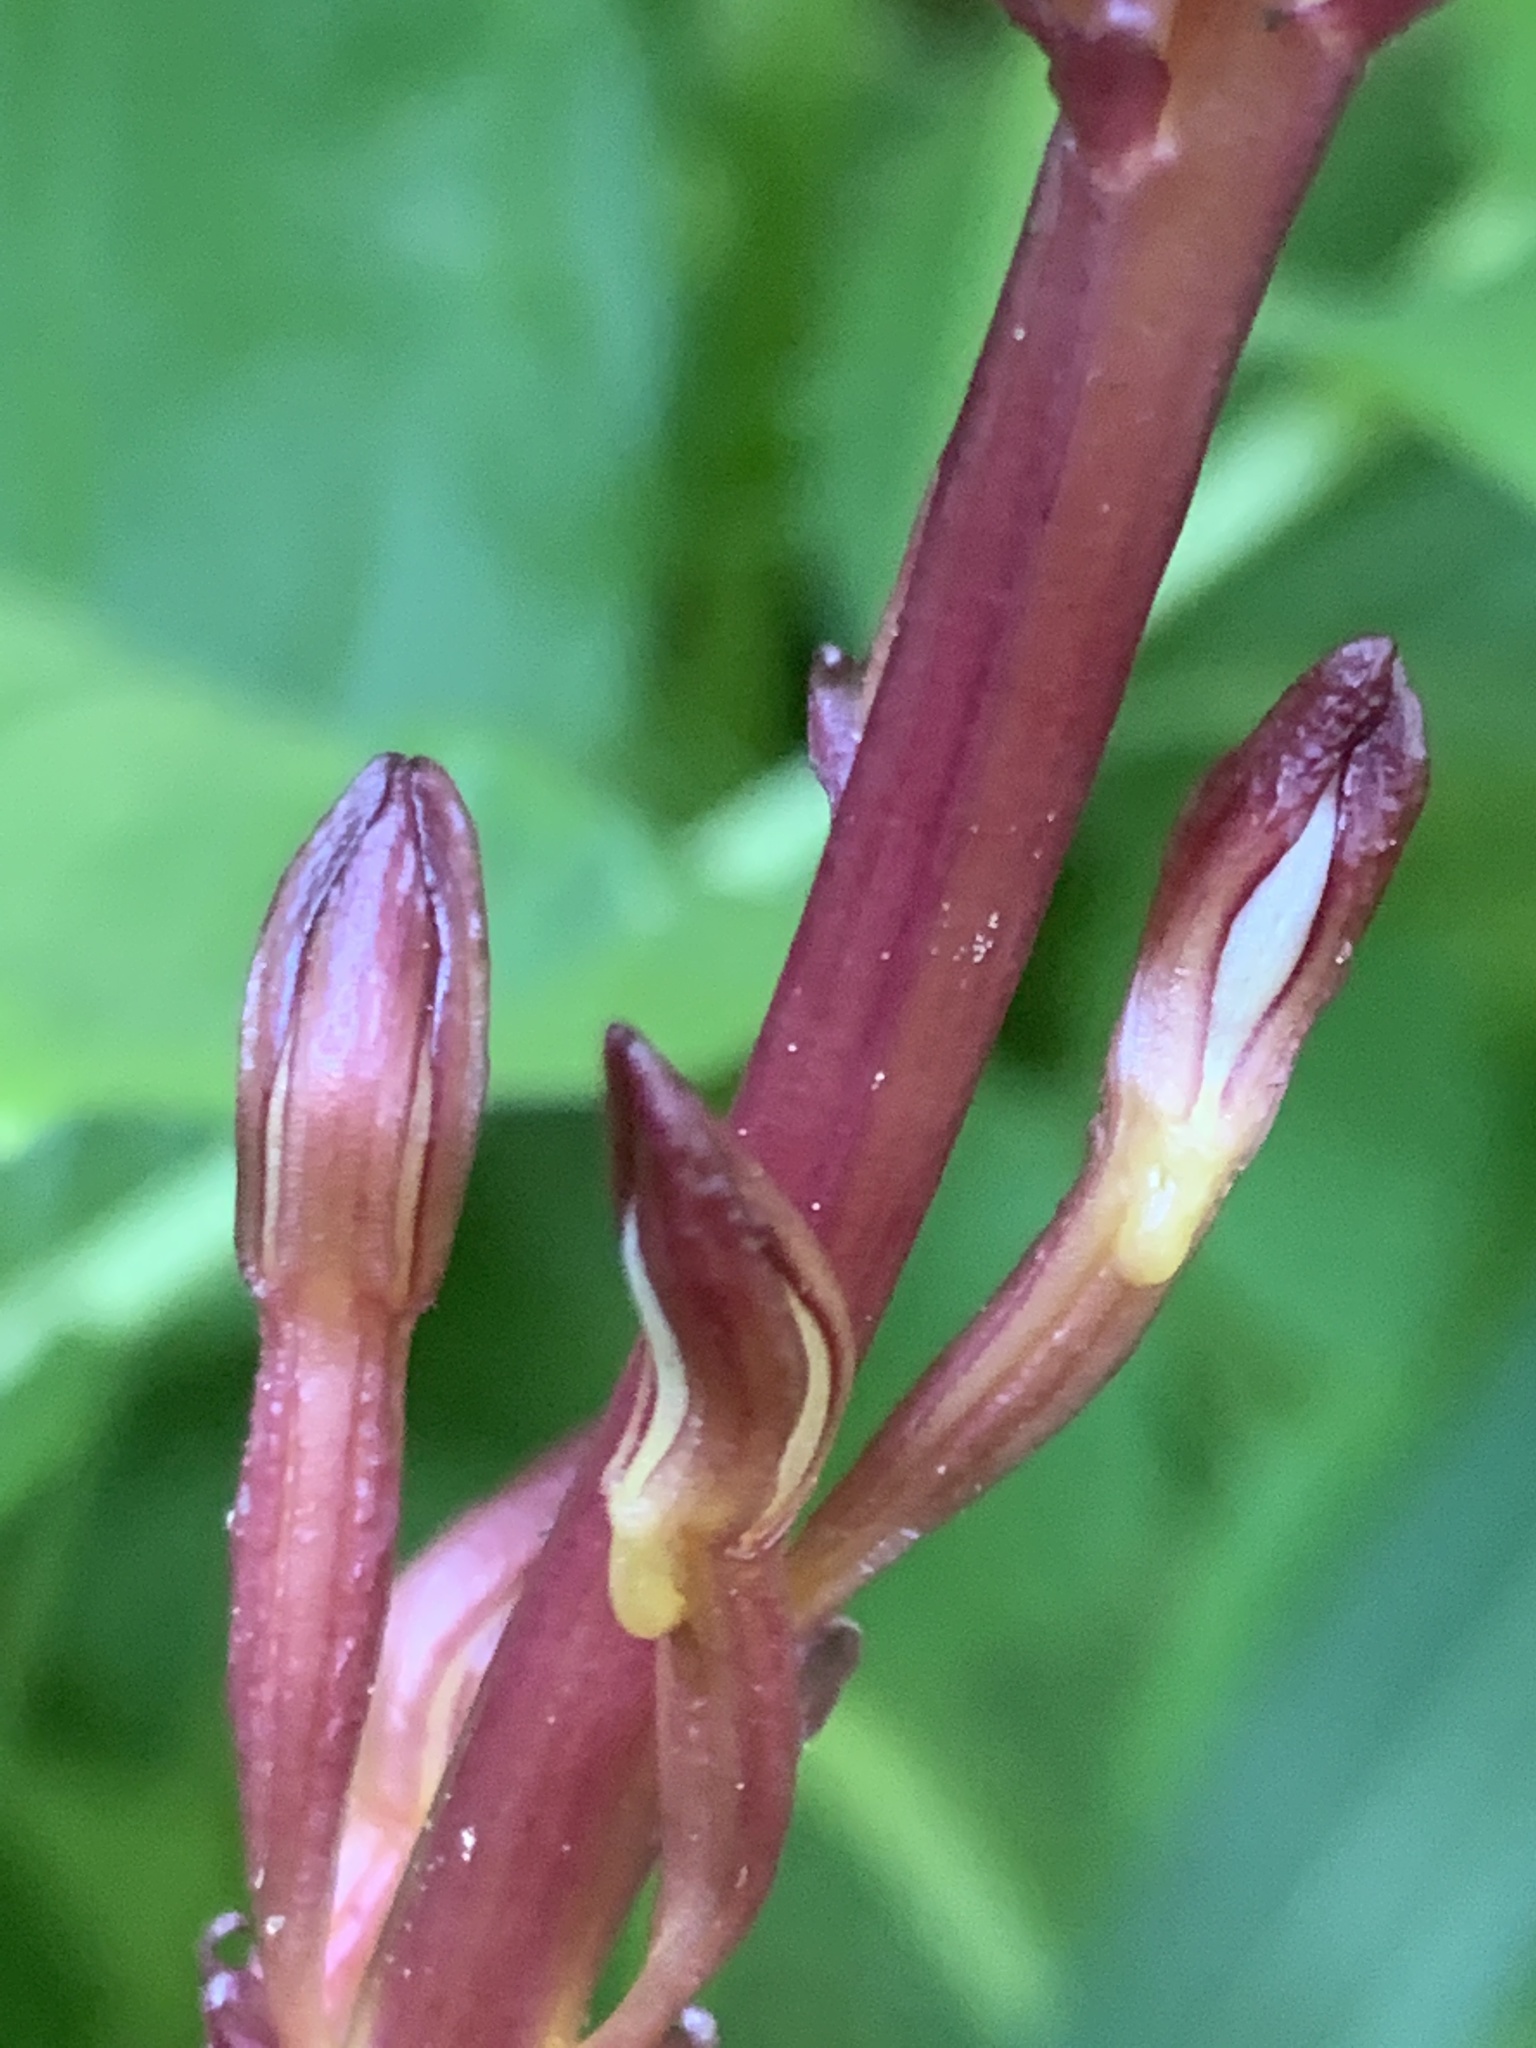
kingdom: Plantae
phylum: Tracheophyta
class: Liliopsida
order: Asparagales
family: Orchidaceae
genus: Corallorhiza
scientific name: Corallorhiza maculata
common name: Spotted coralroot
